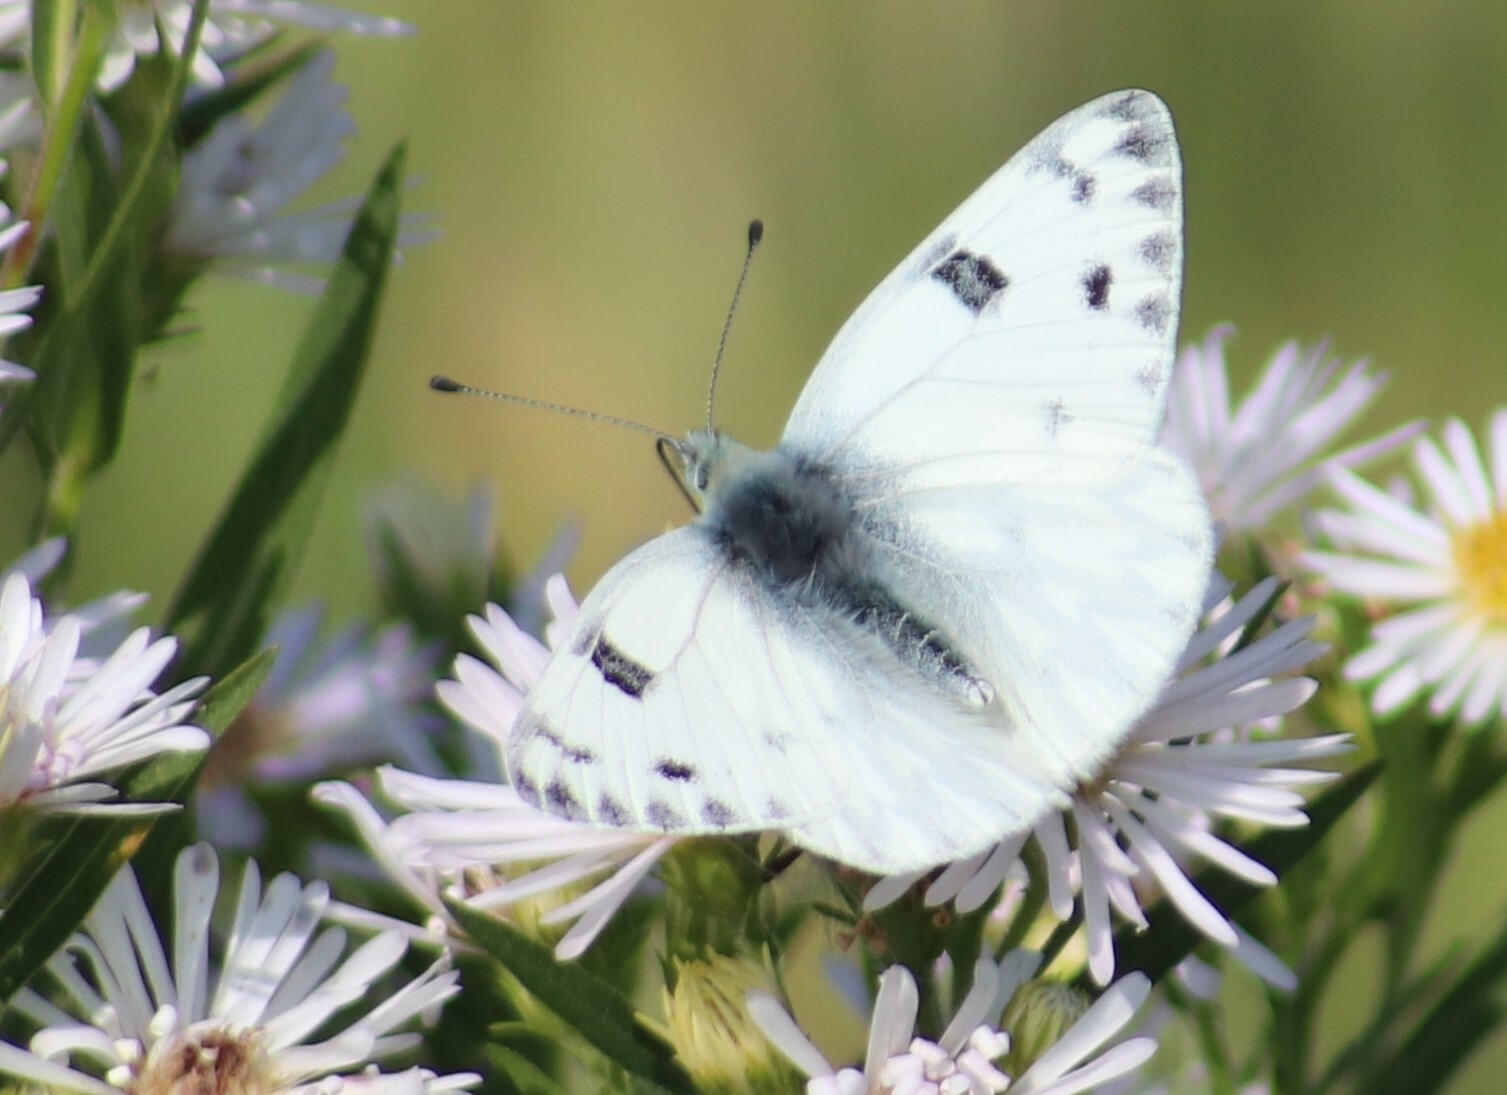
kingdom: Animalia
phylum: Arthropoda
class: Insecta
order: Lepidoptera
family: Pieridae
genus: Pontia
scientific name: Pontia occidentalis
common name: Western white
